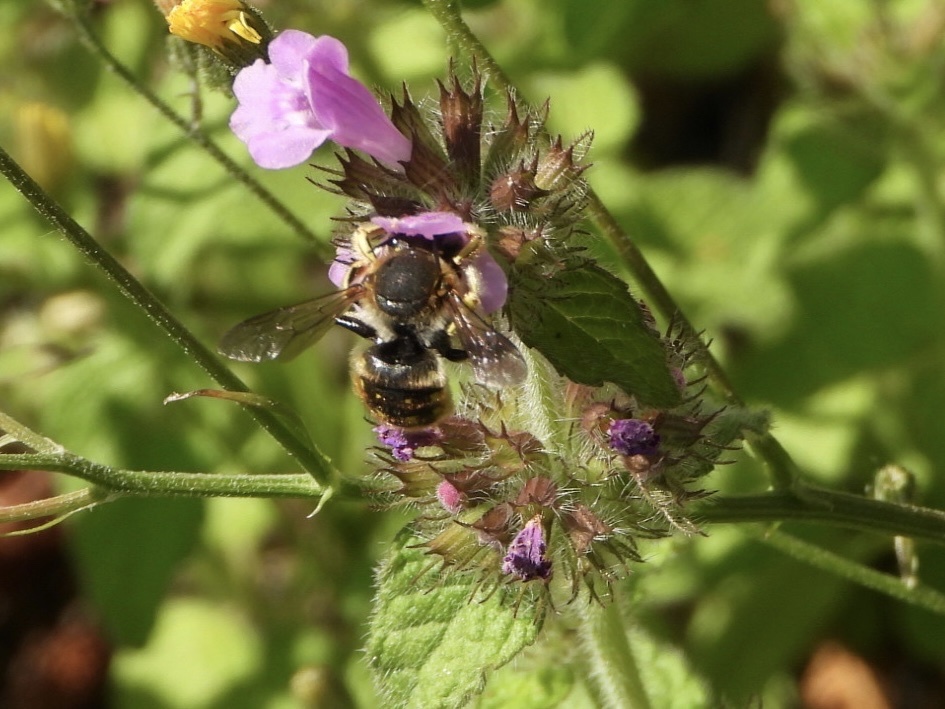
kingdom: Animalia
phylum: Arthropoda
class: Insecta
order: Hymenoptera
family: Megachilidae
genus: Anthidium
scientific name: Anthidium manicatum
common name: Wool carder bee
